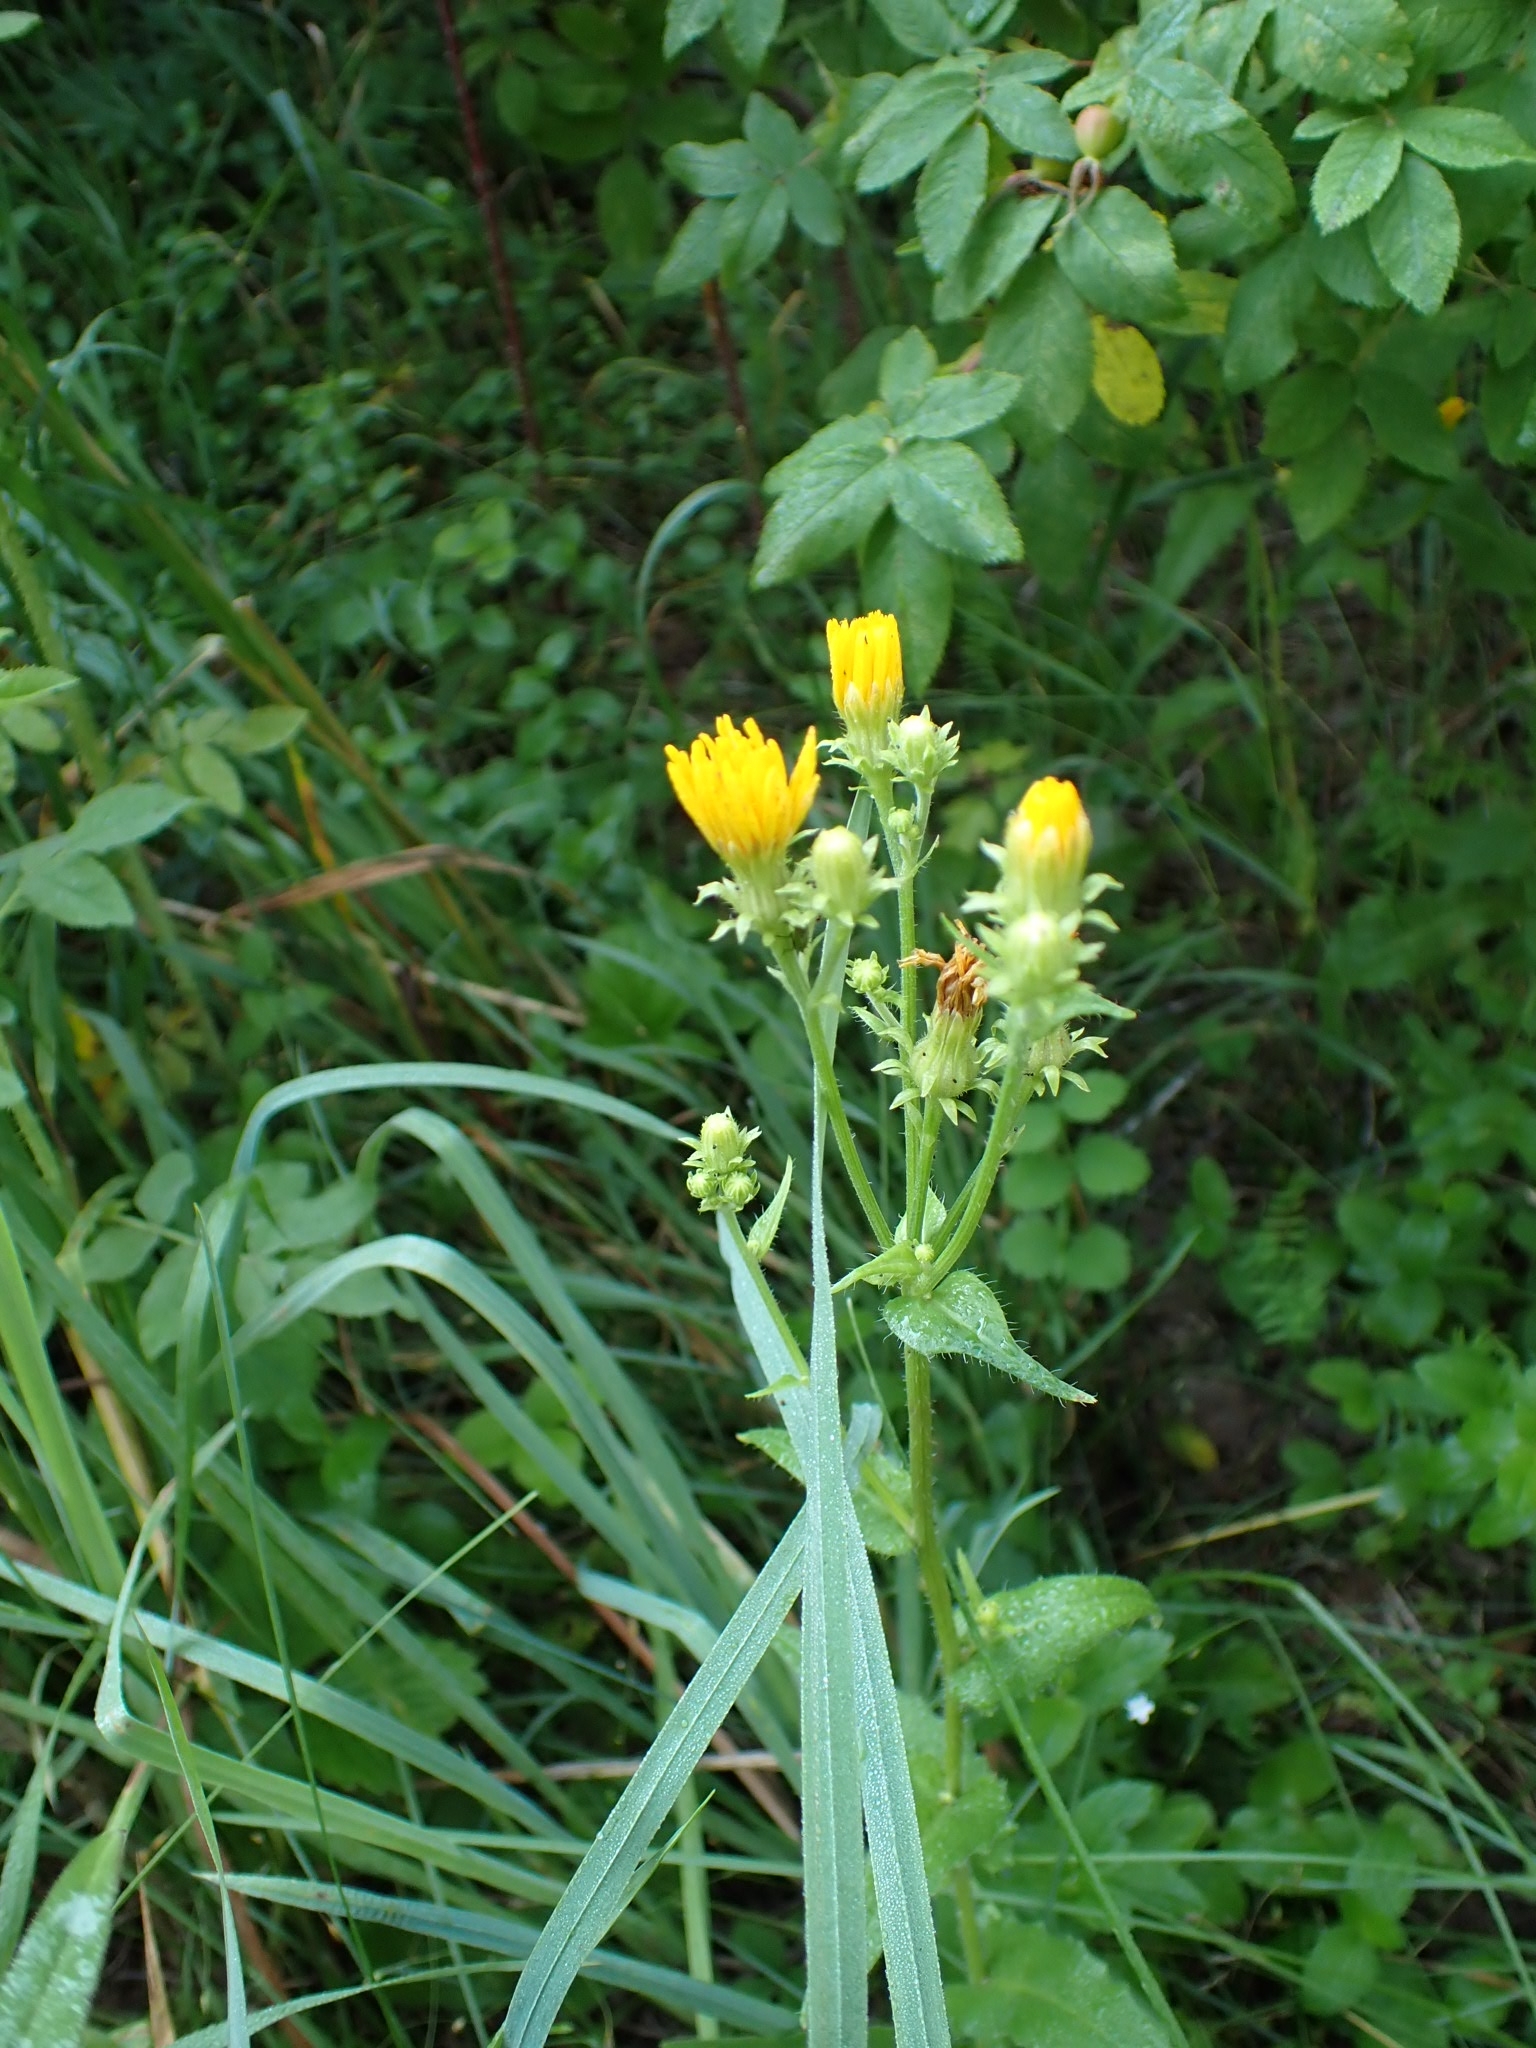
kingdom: Plantae
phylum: Tracheophyta
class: Magnoliopsida
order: Asterales
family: Asteraceae
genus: Picris
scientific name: Picris hieracioides
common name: Hawkweed oxtongue
